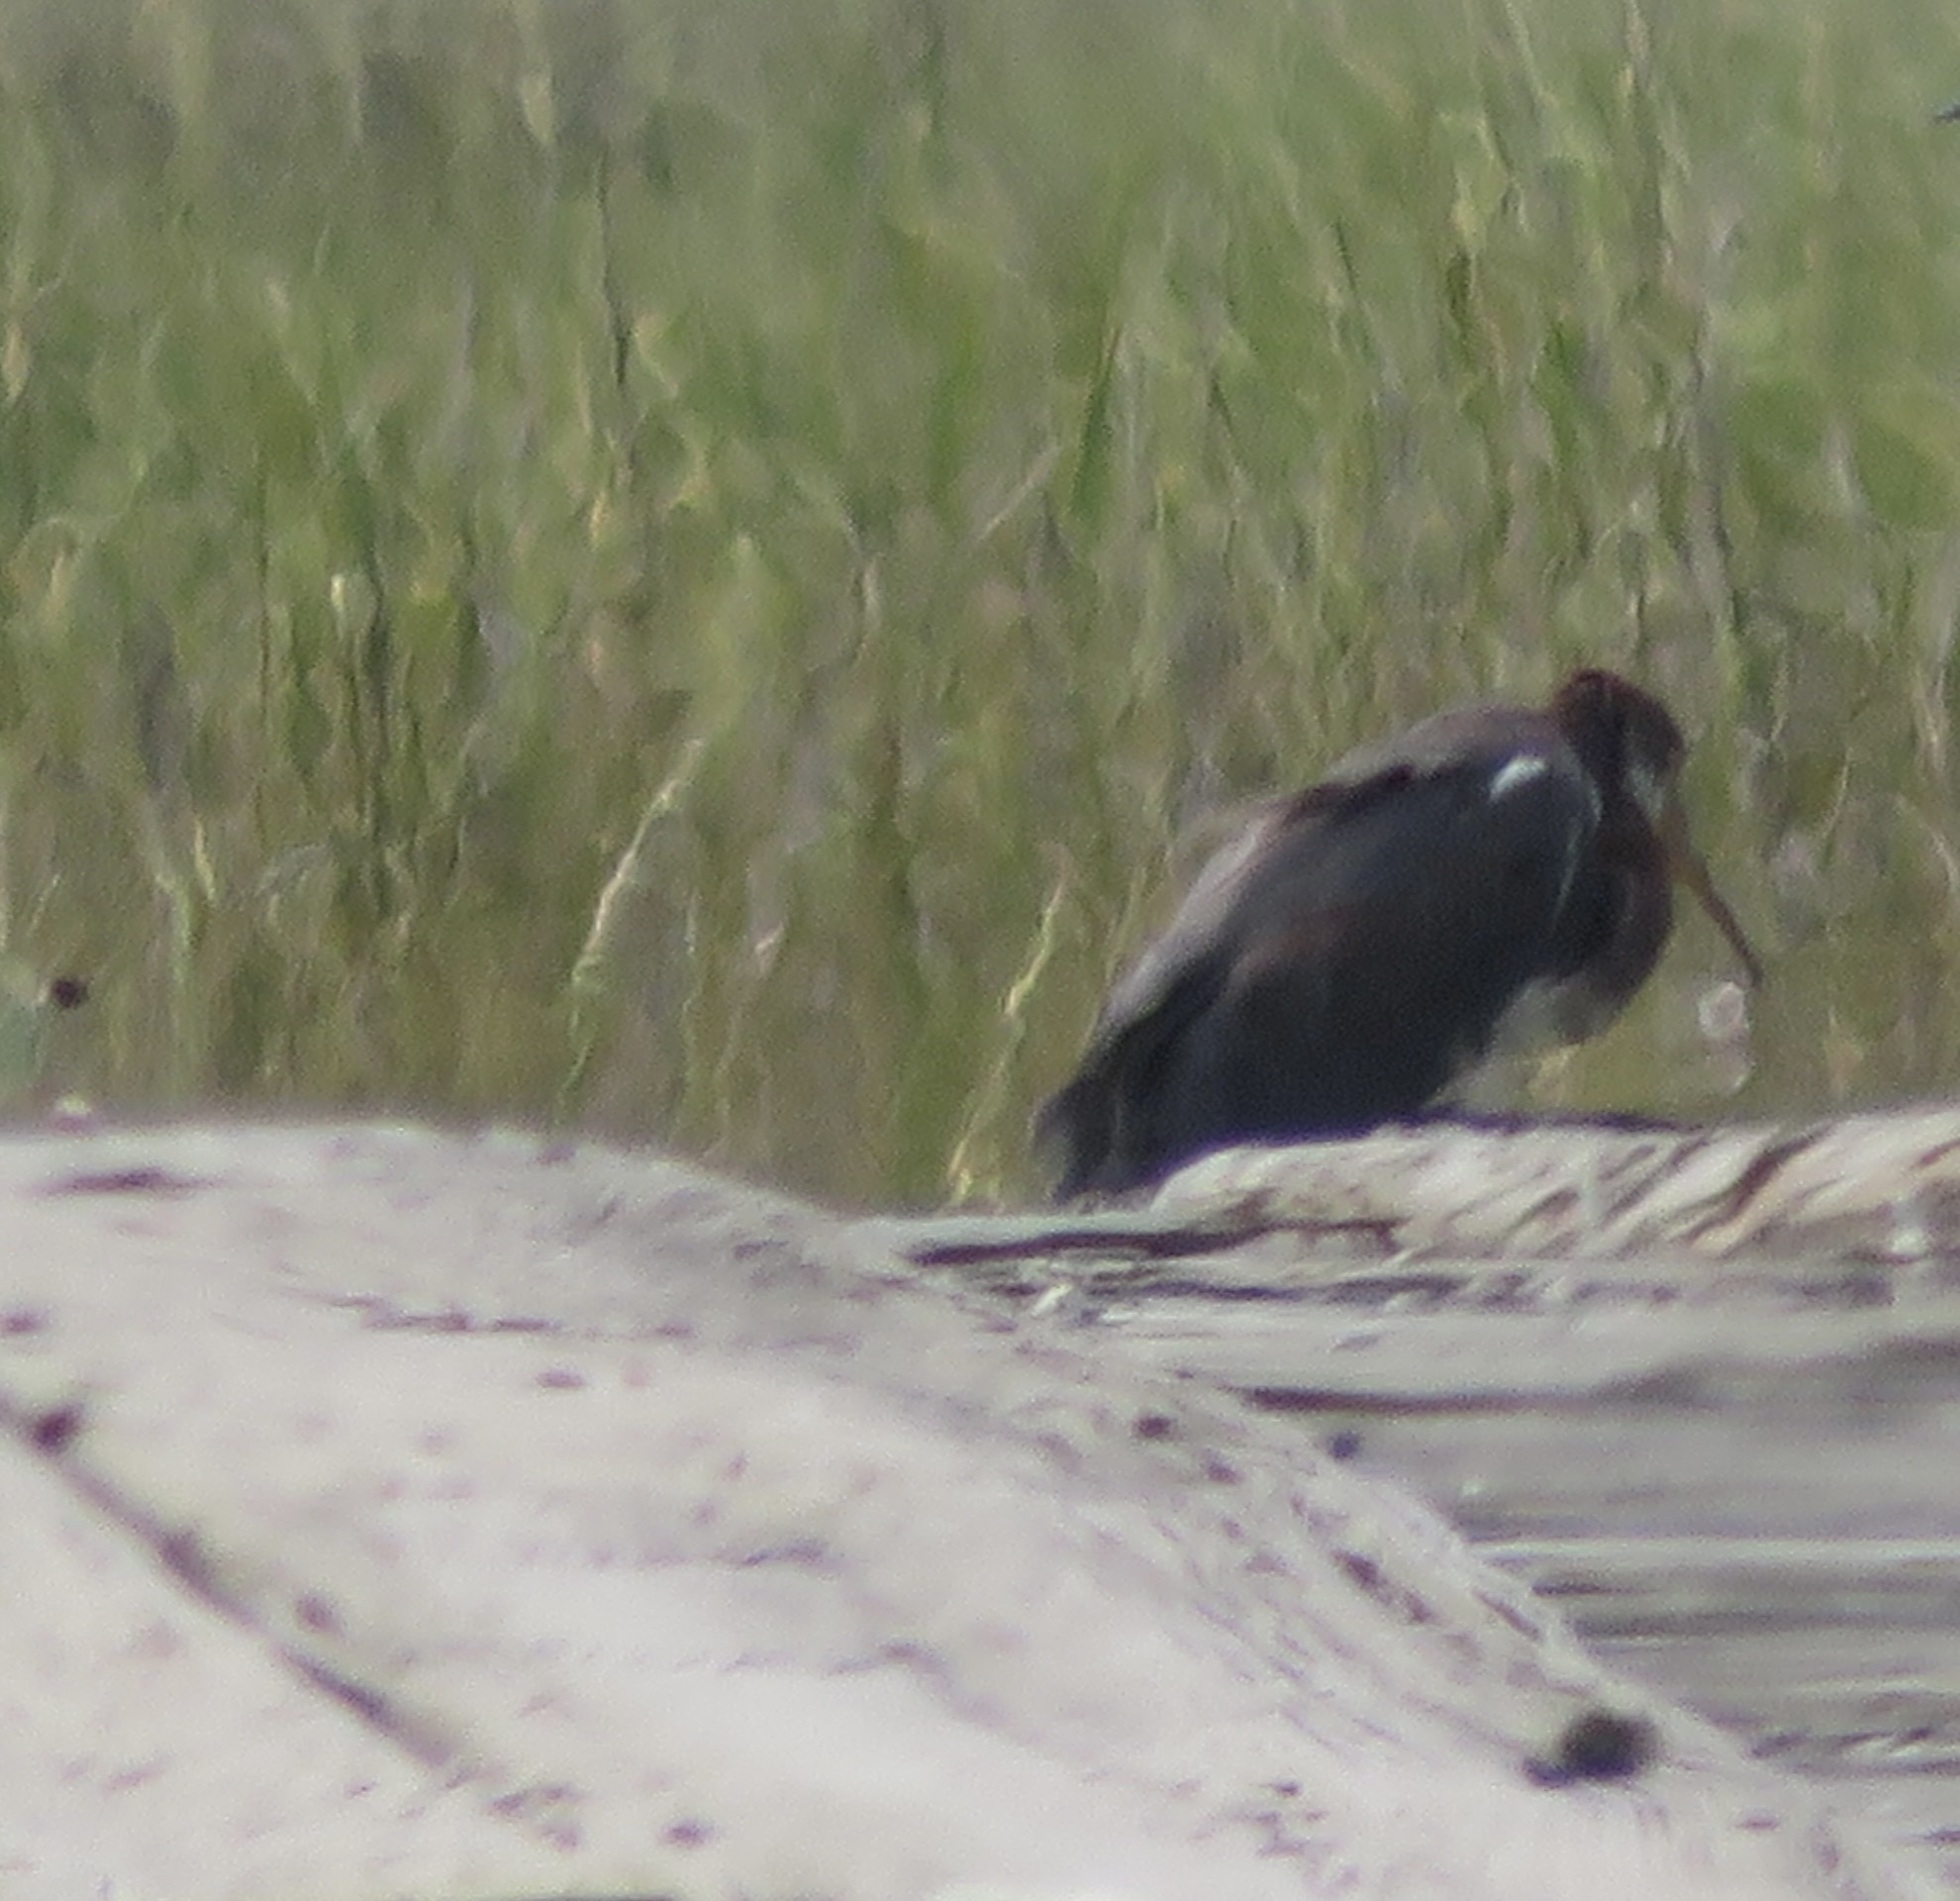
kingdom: Animalia
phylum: Chordata
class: Aves
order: Pelecaniformes
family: Ardeidae
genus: Egretta
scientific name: Egretta tricolor
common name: Tricolored heron
